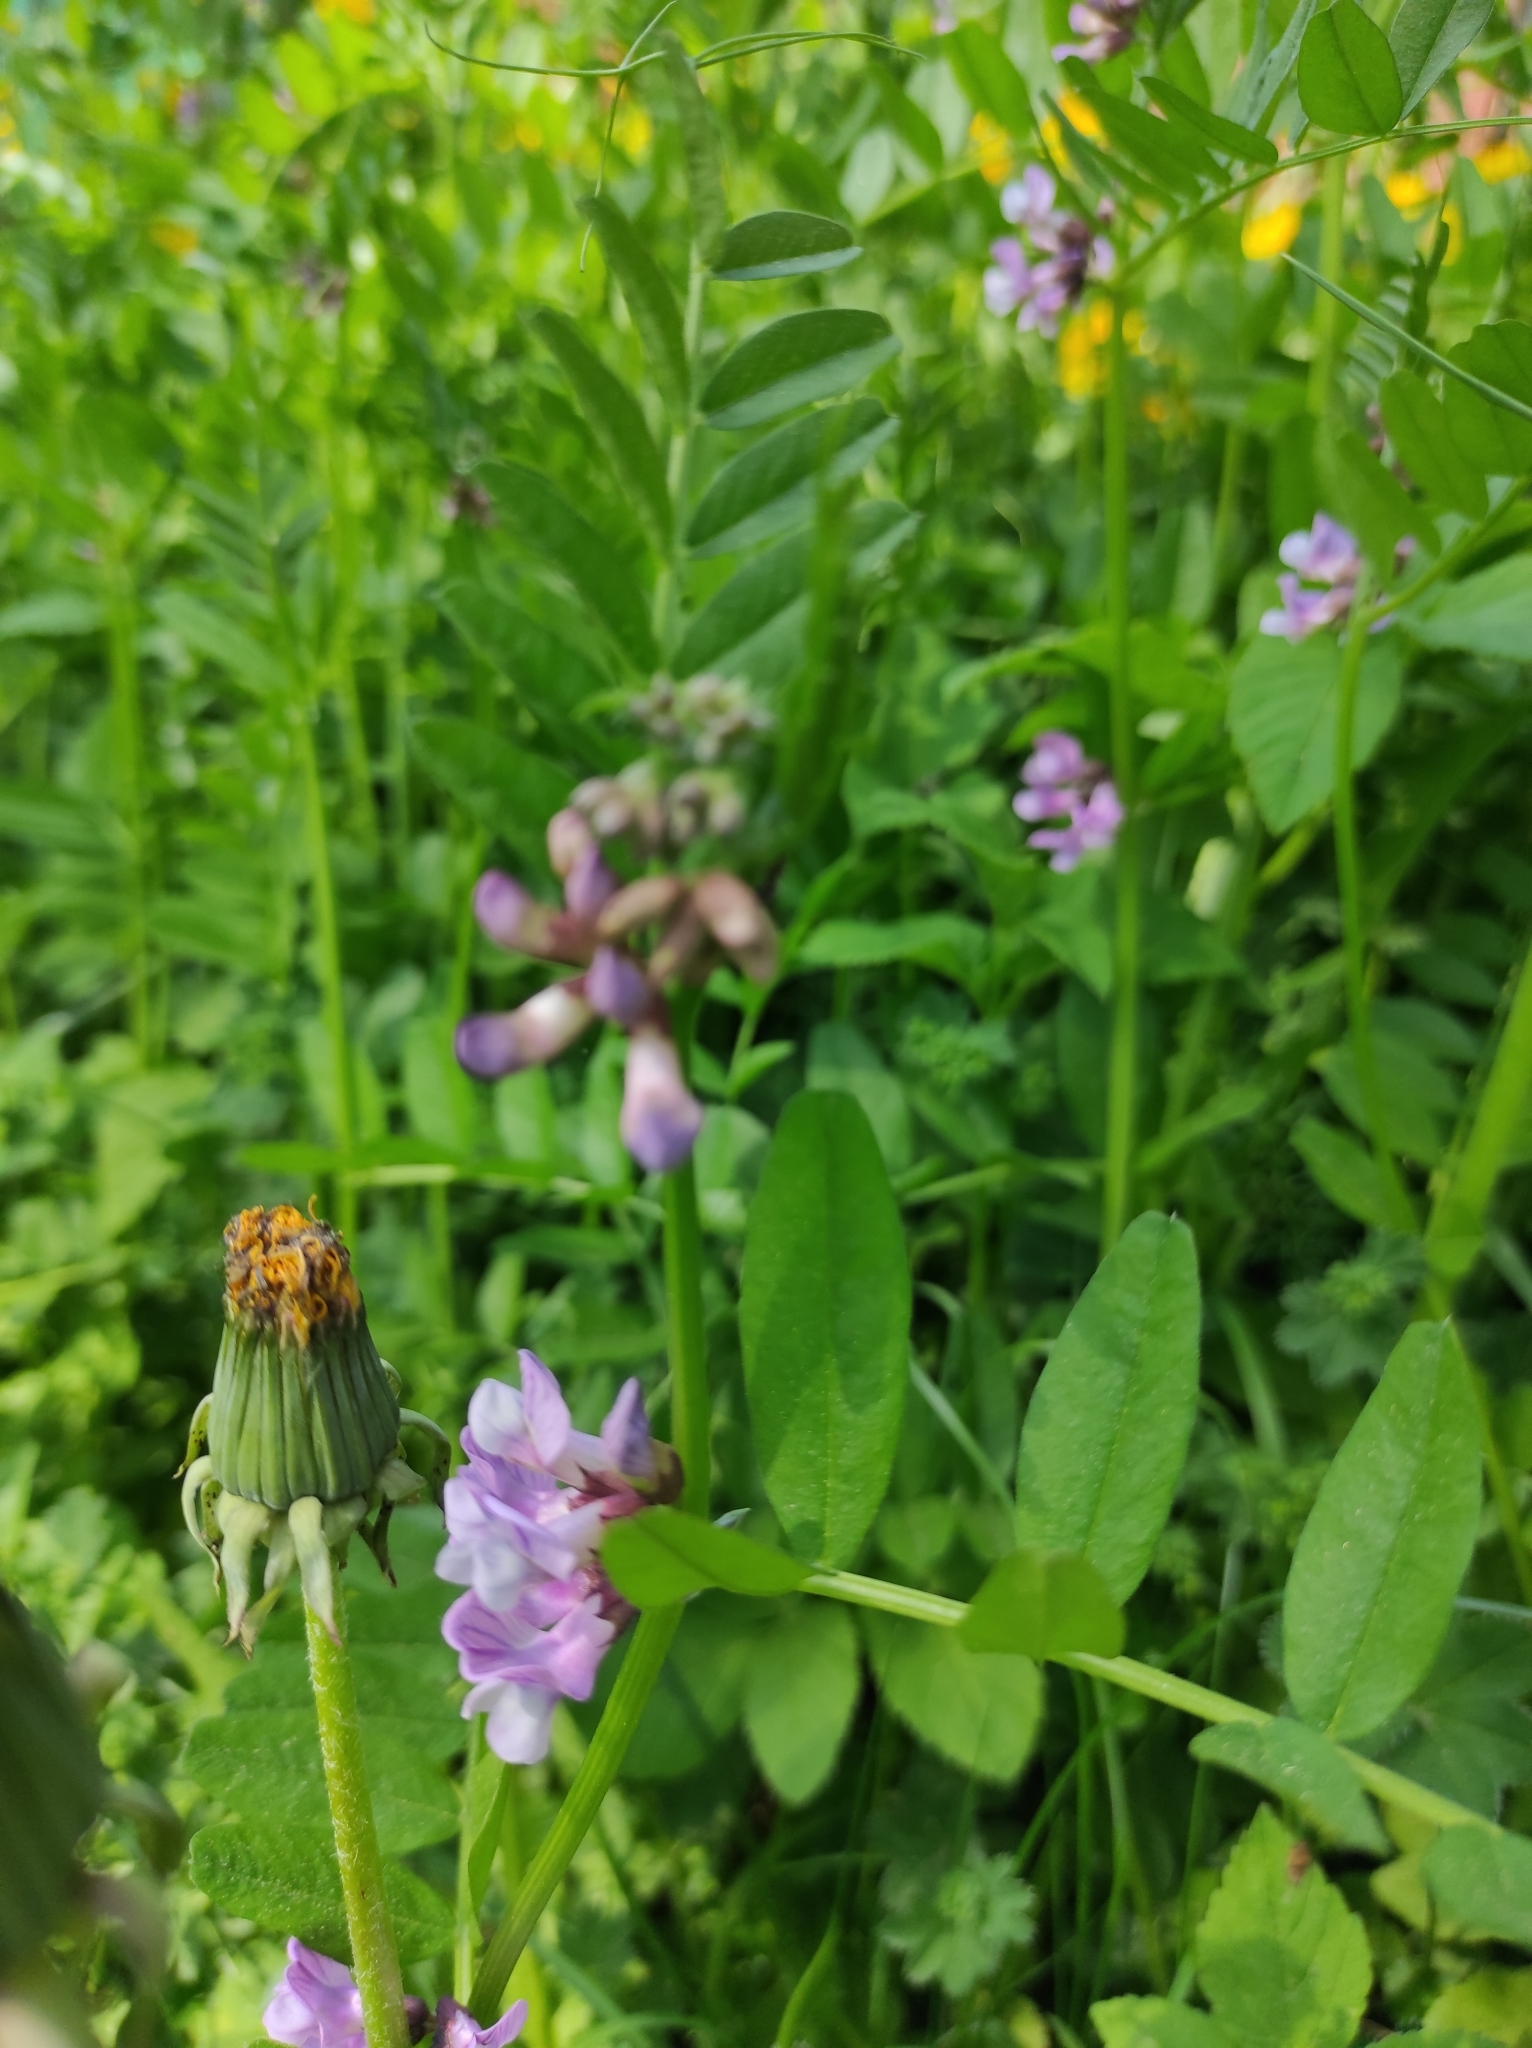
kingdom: Plantae
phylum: Tracheophyta
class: Magnoliopsida
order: Fabales
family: Fabaceae
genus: Vicia
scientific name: Vicia sepium
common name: Bush vetch
